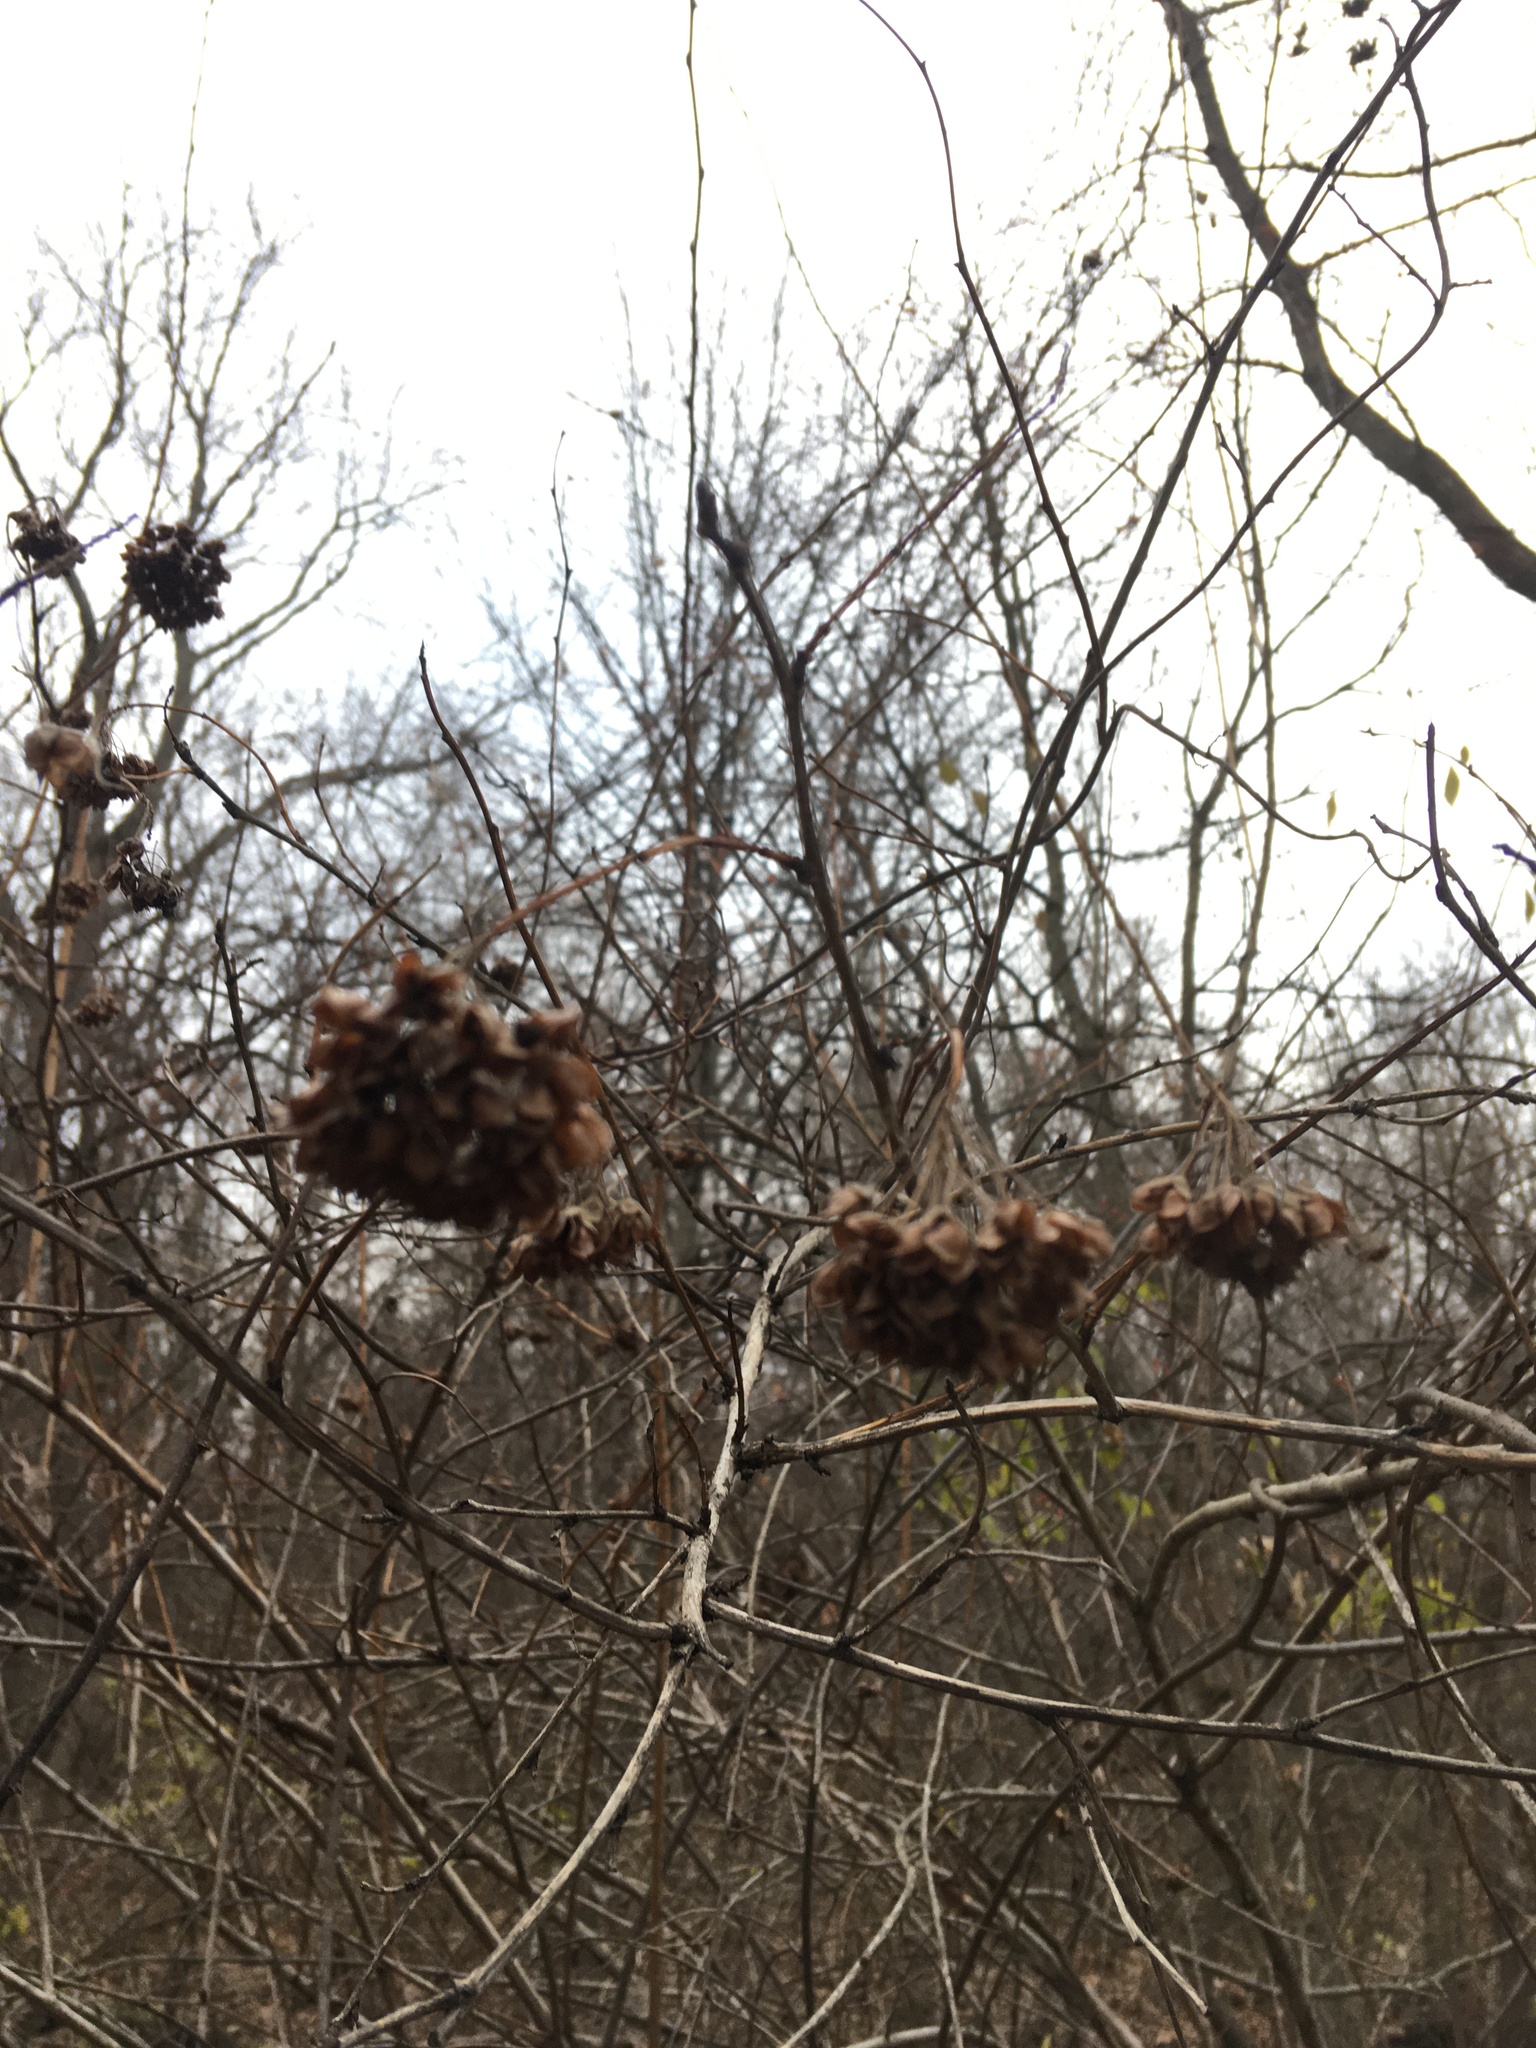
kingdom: Plantae
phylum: Tracheophyta
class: Magnoliopsida
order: Rosales
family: Rosaceae
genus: Physocarpus
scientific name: Physocarpus opulifolius
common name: Ninebark
